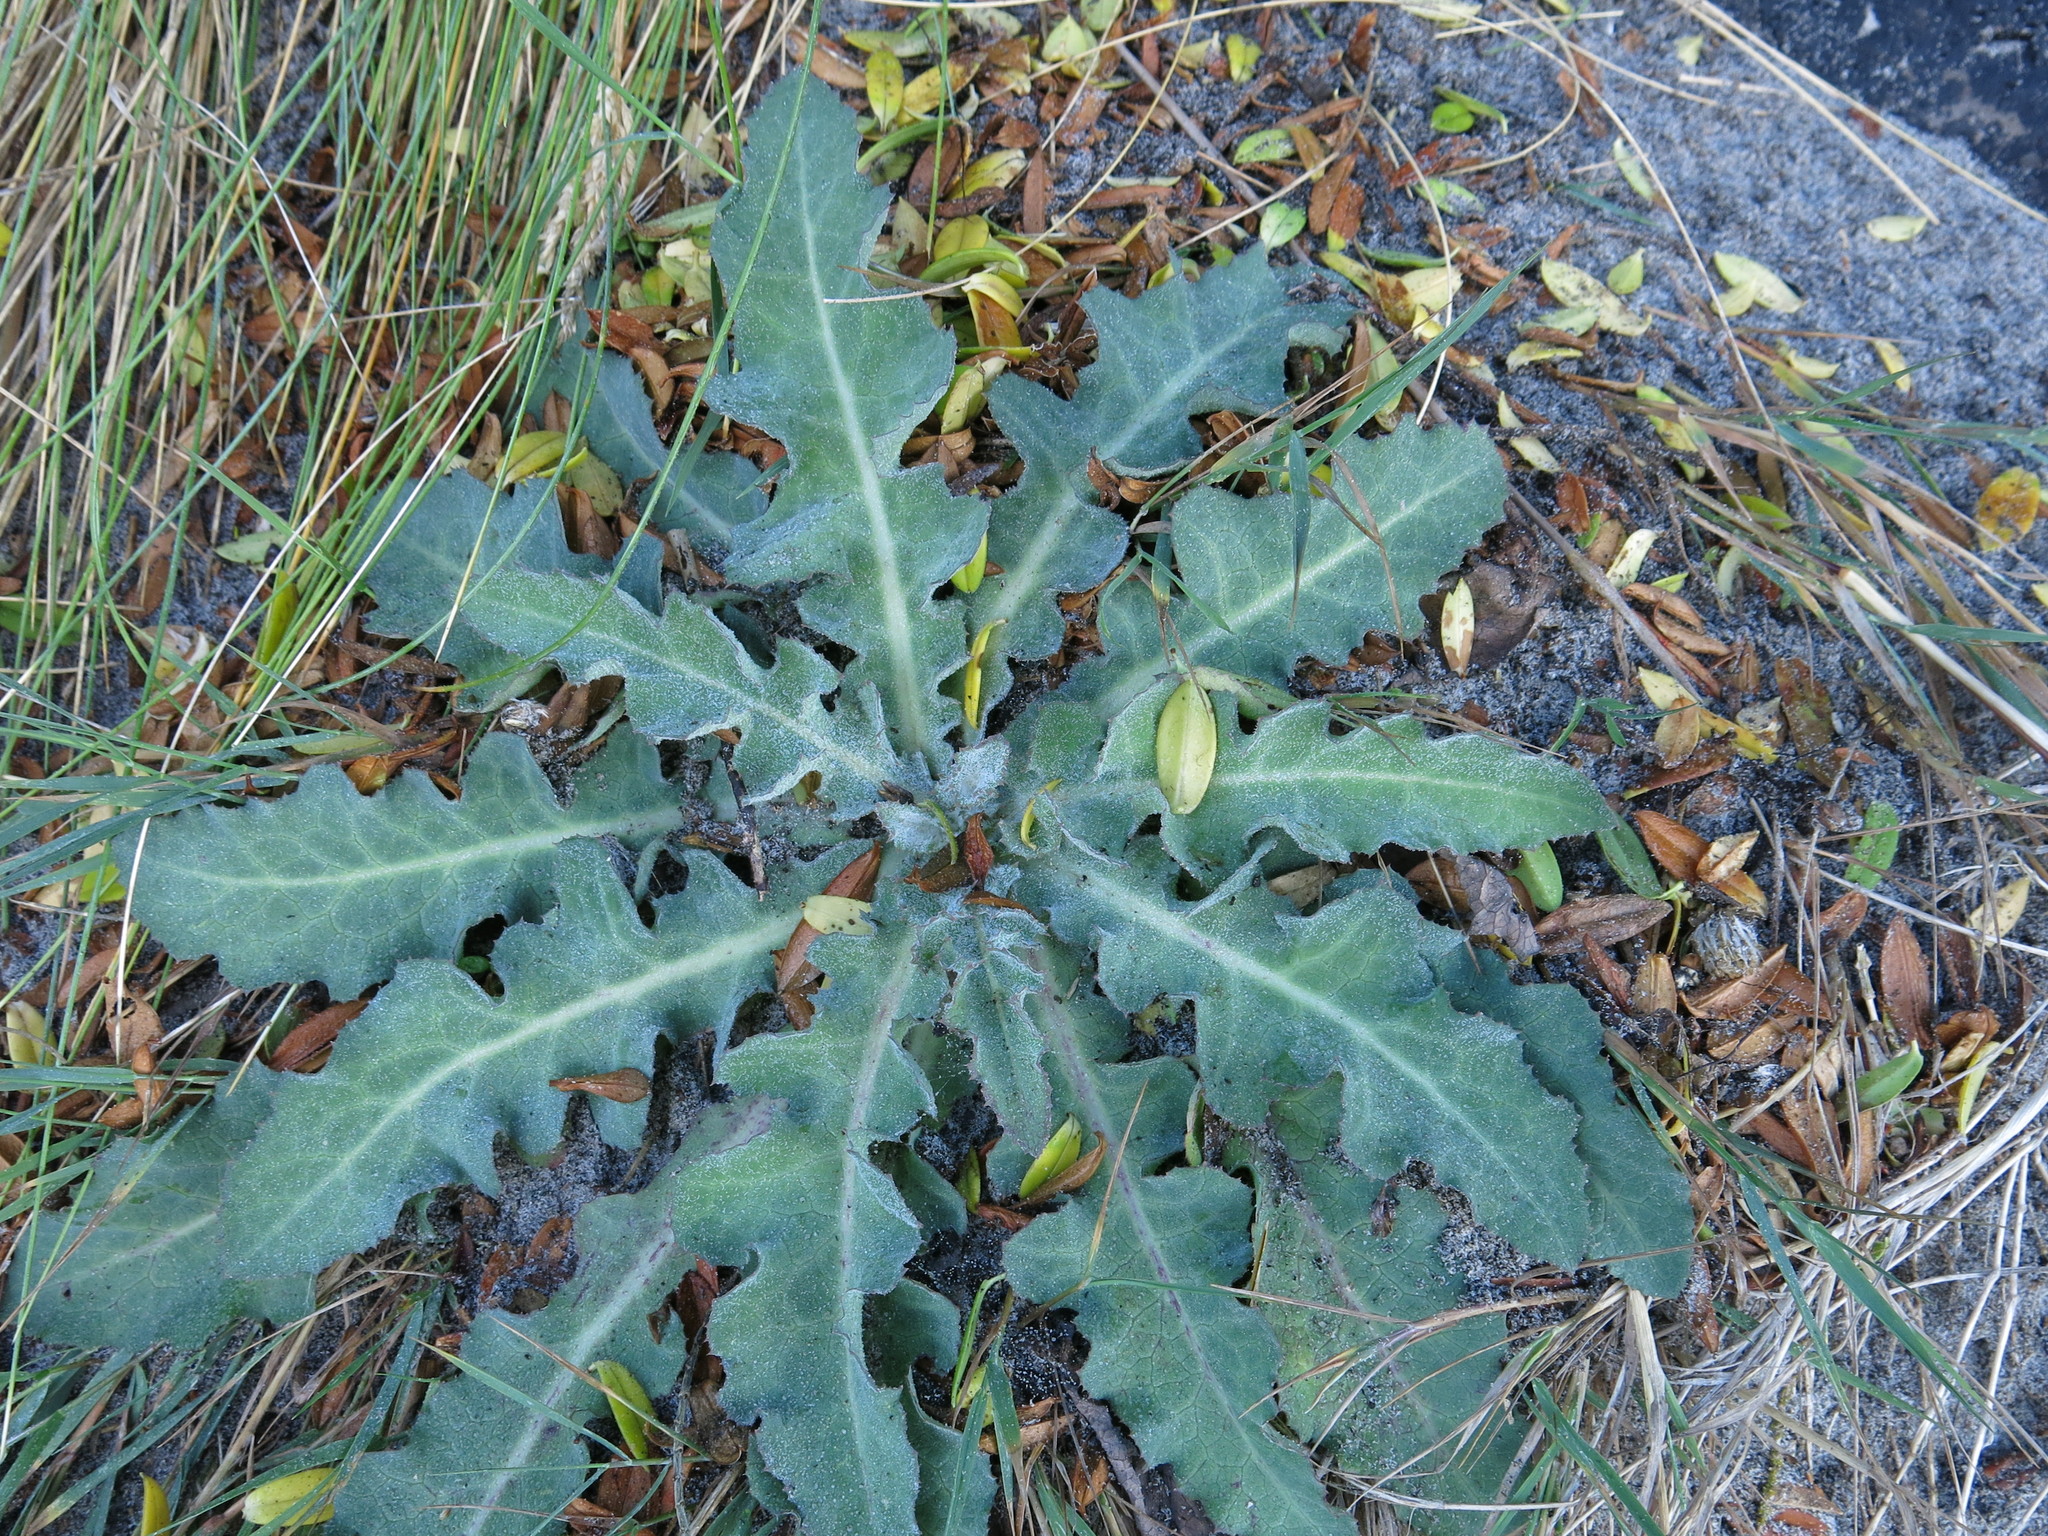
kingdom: Plantae
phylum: Tracheophyta
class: Magnoliopsida
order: Asterales
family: Asteraceae
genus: Sonchus
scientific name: Sonchus kirkii
